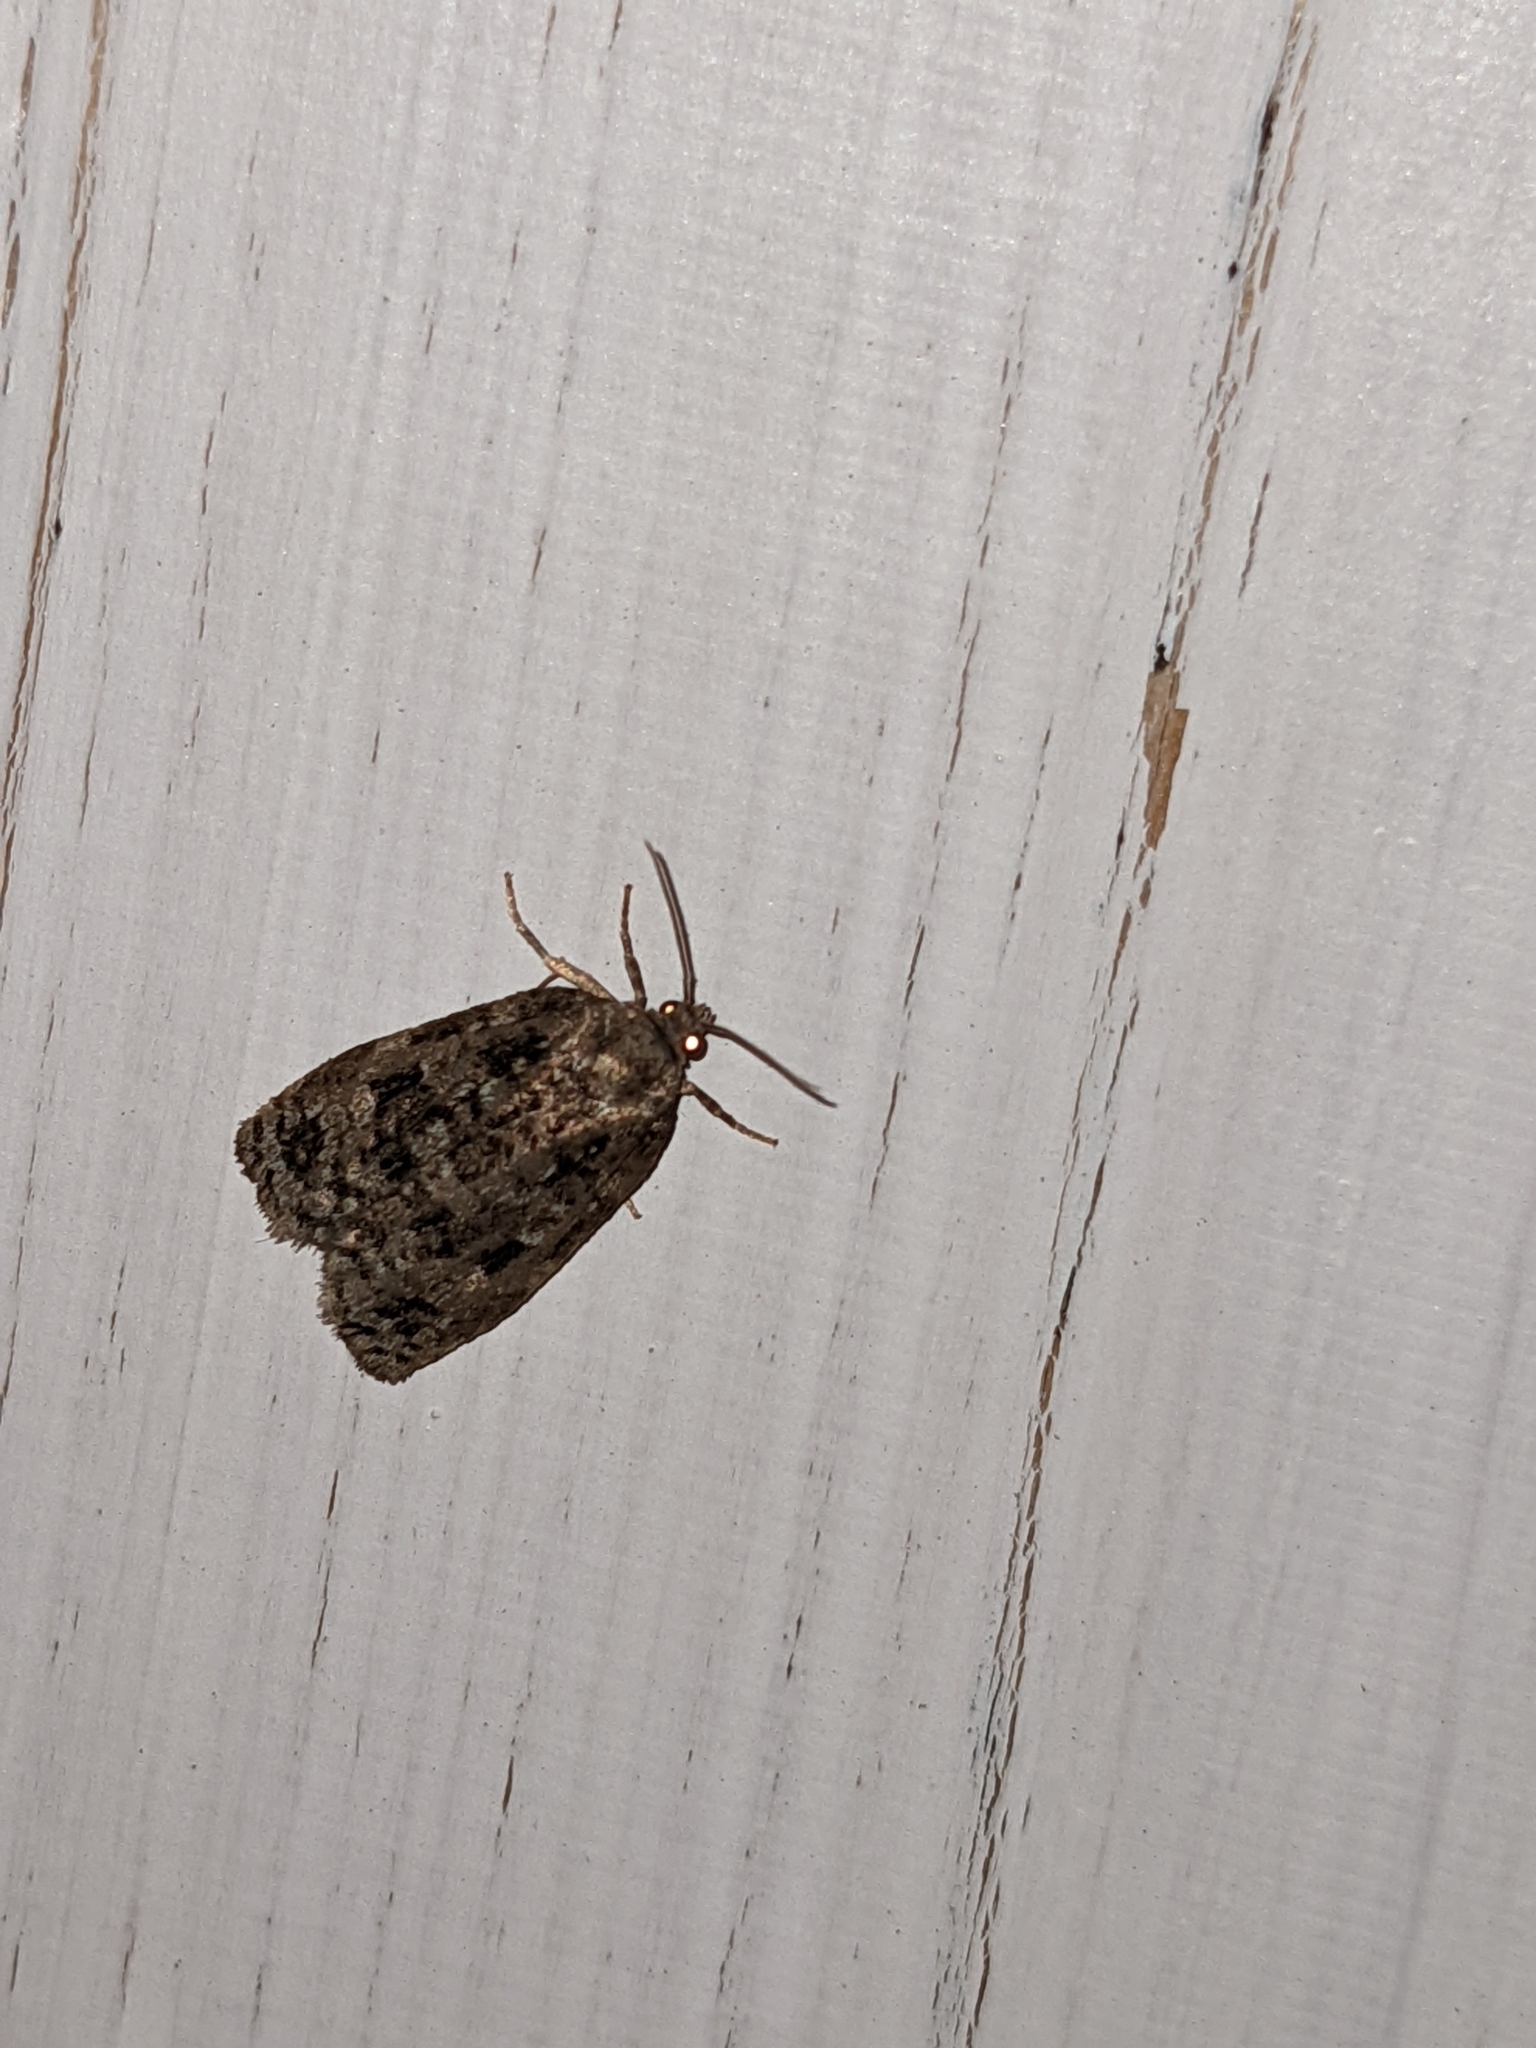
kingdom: Animalia
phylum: Arthropoda
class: Insecta
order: Lepidoptera
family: Tortricidae
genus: Choristoneura
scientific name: Choristoneura fumiferana
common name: Spruce budworm
